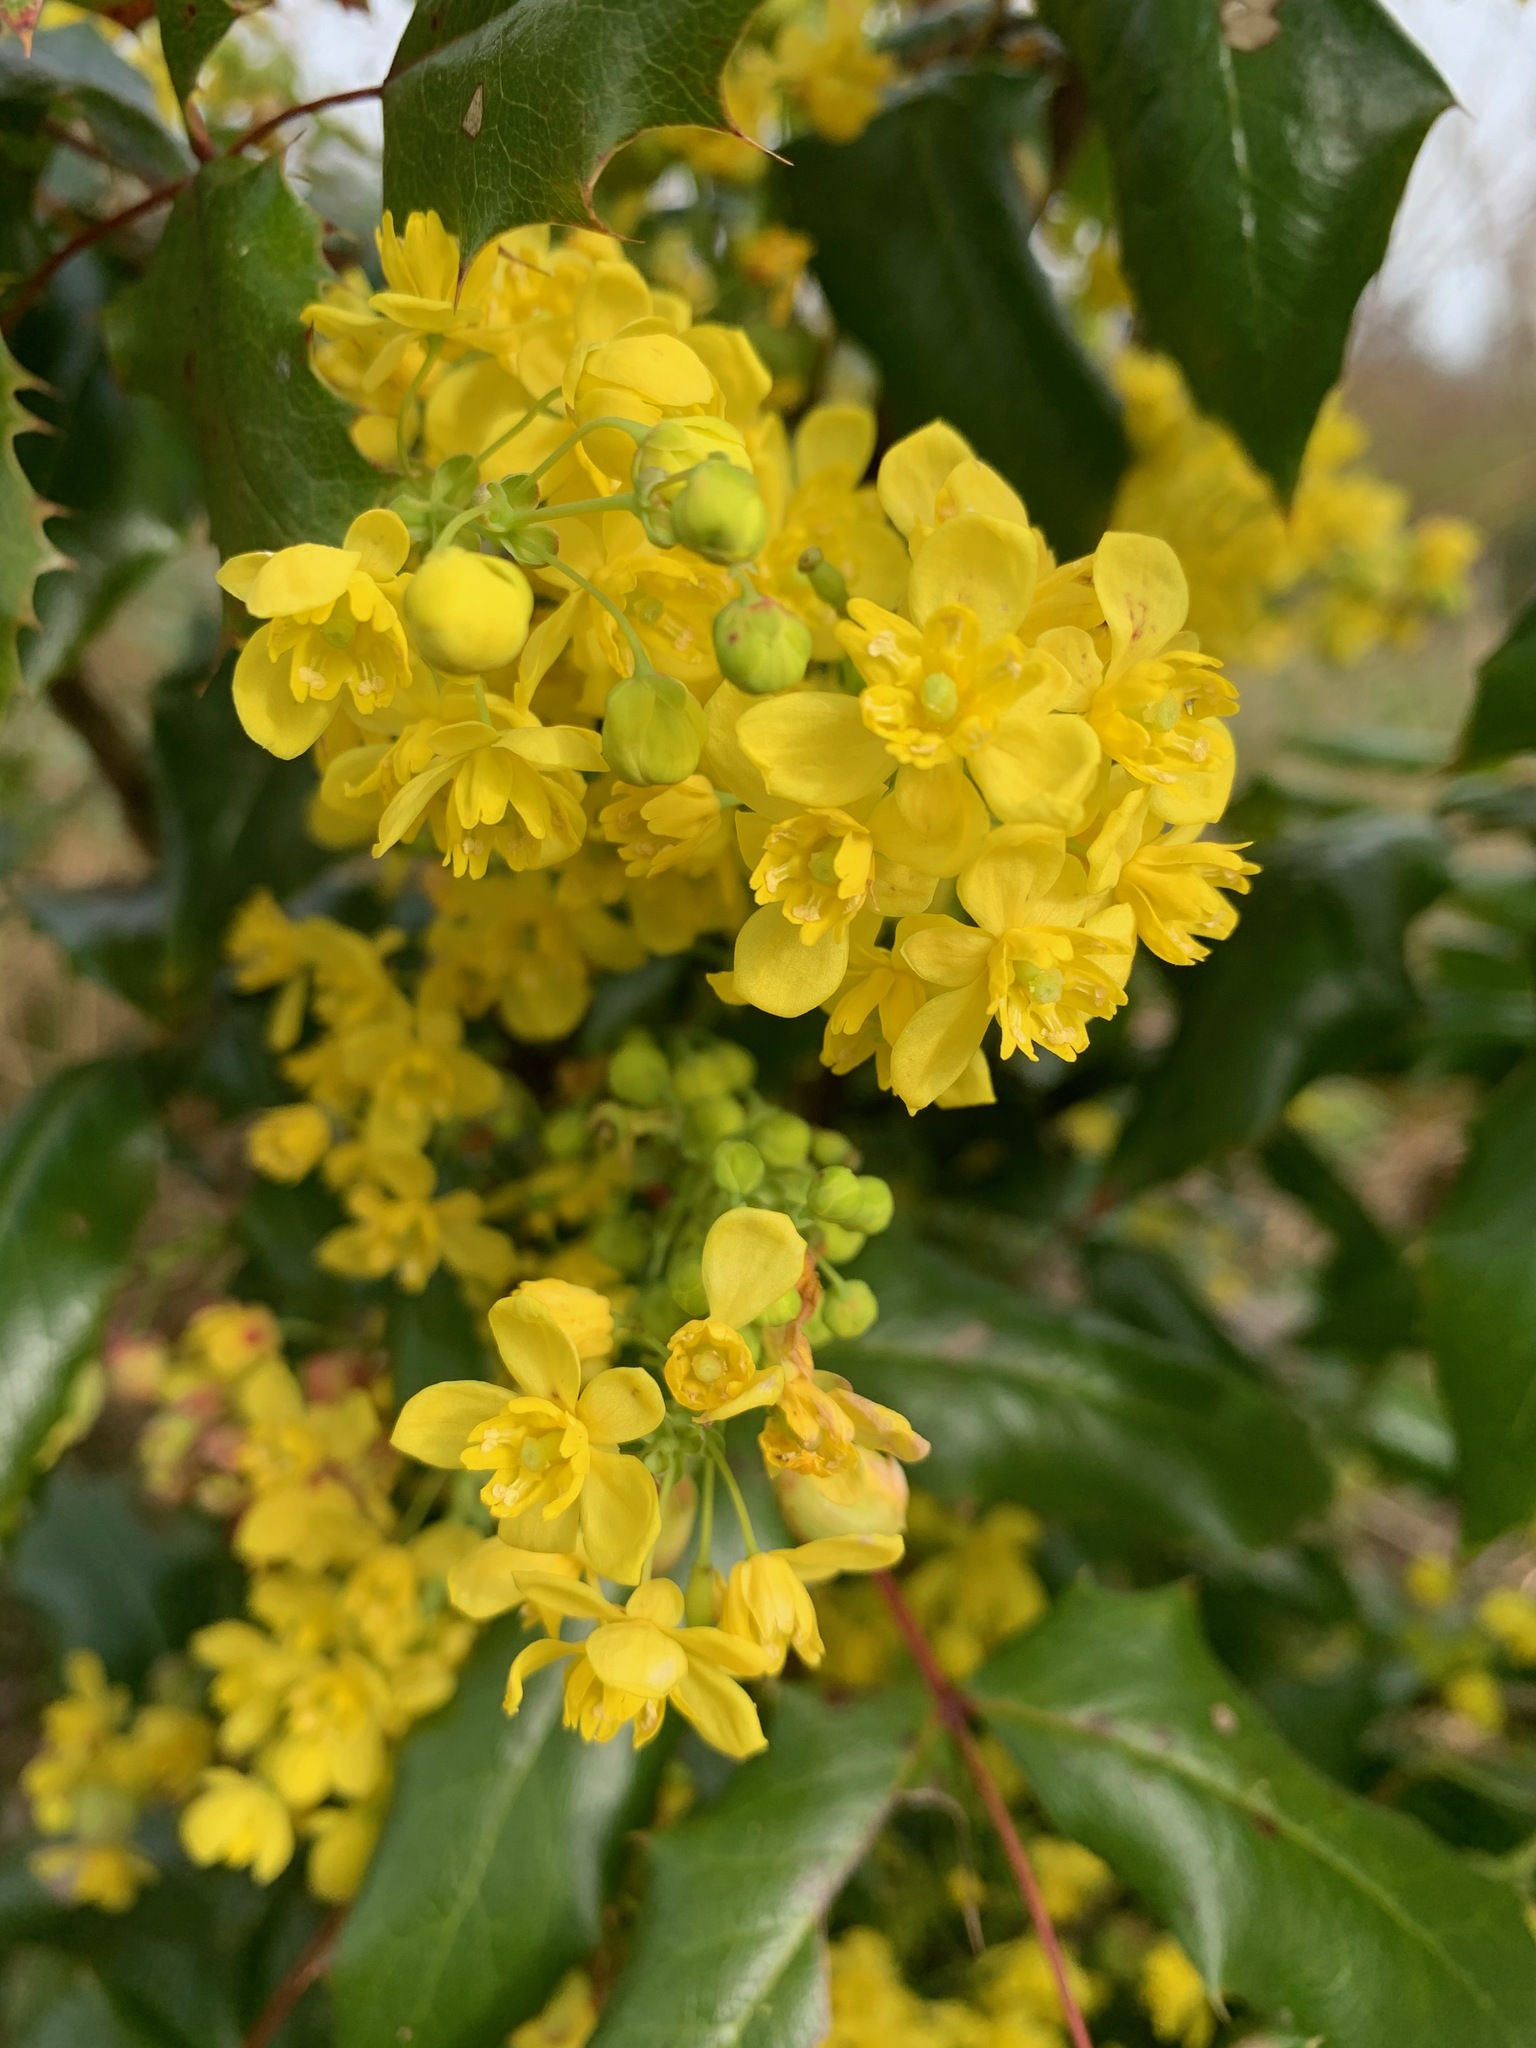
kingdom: Plantae
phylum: Tracheophyta
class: Magnoliopsida
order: Ranunculales
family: Berberidaceae
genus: Mahonia
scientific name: Mahonia aquifolium
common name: Oregon-grape
